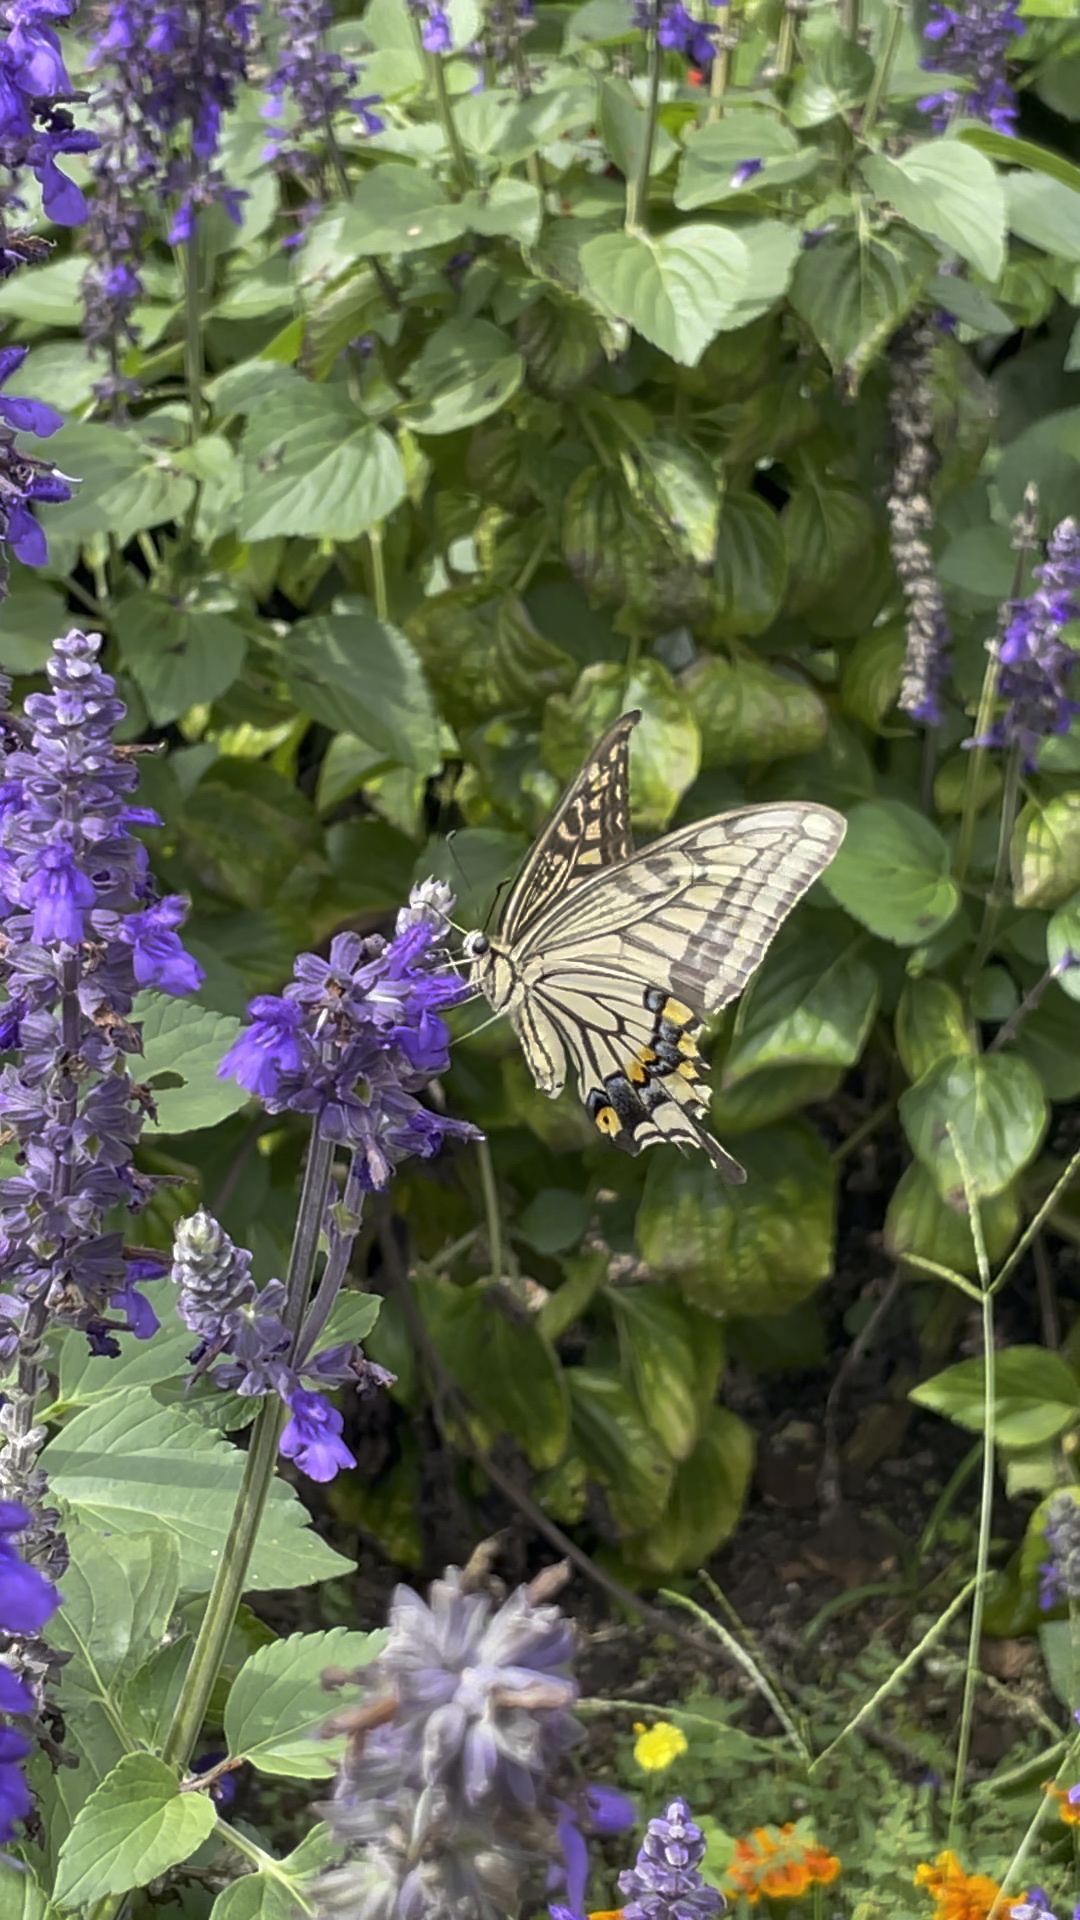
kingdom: Animalia
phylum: Arthropoda
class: Insecta
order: Lepidoptera
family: Papilionidae
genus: Papilio
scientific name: Papilio xuthus
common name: Asian swallowtail
